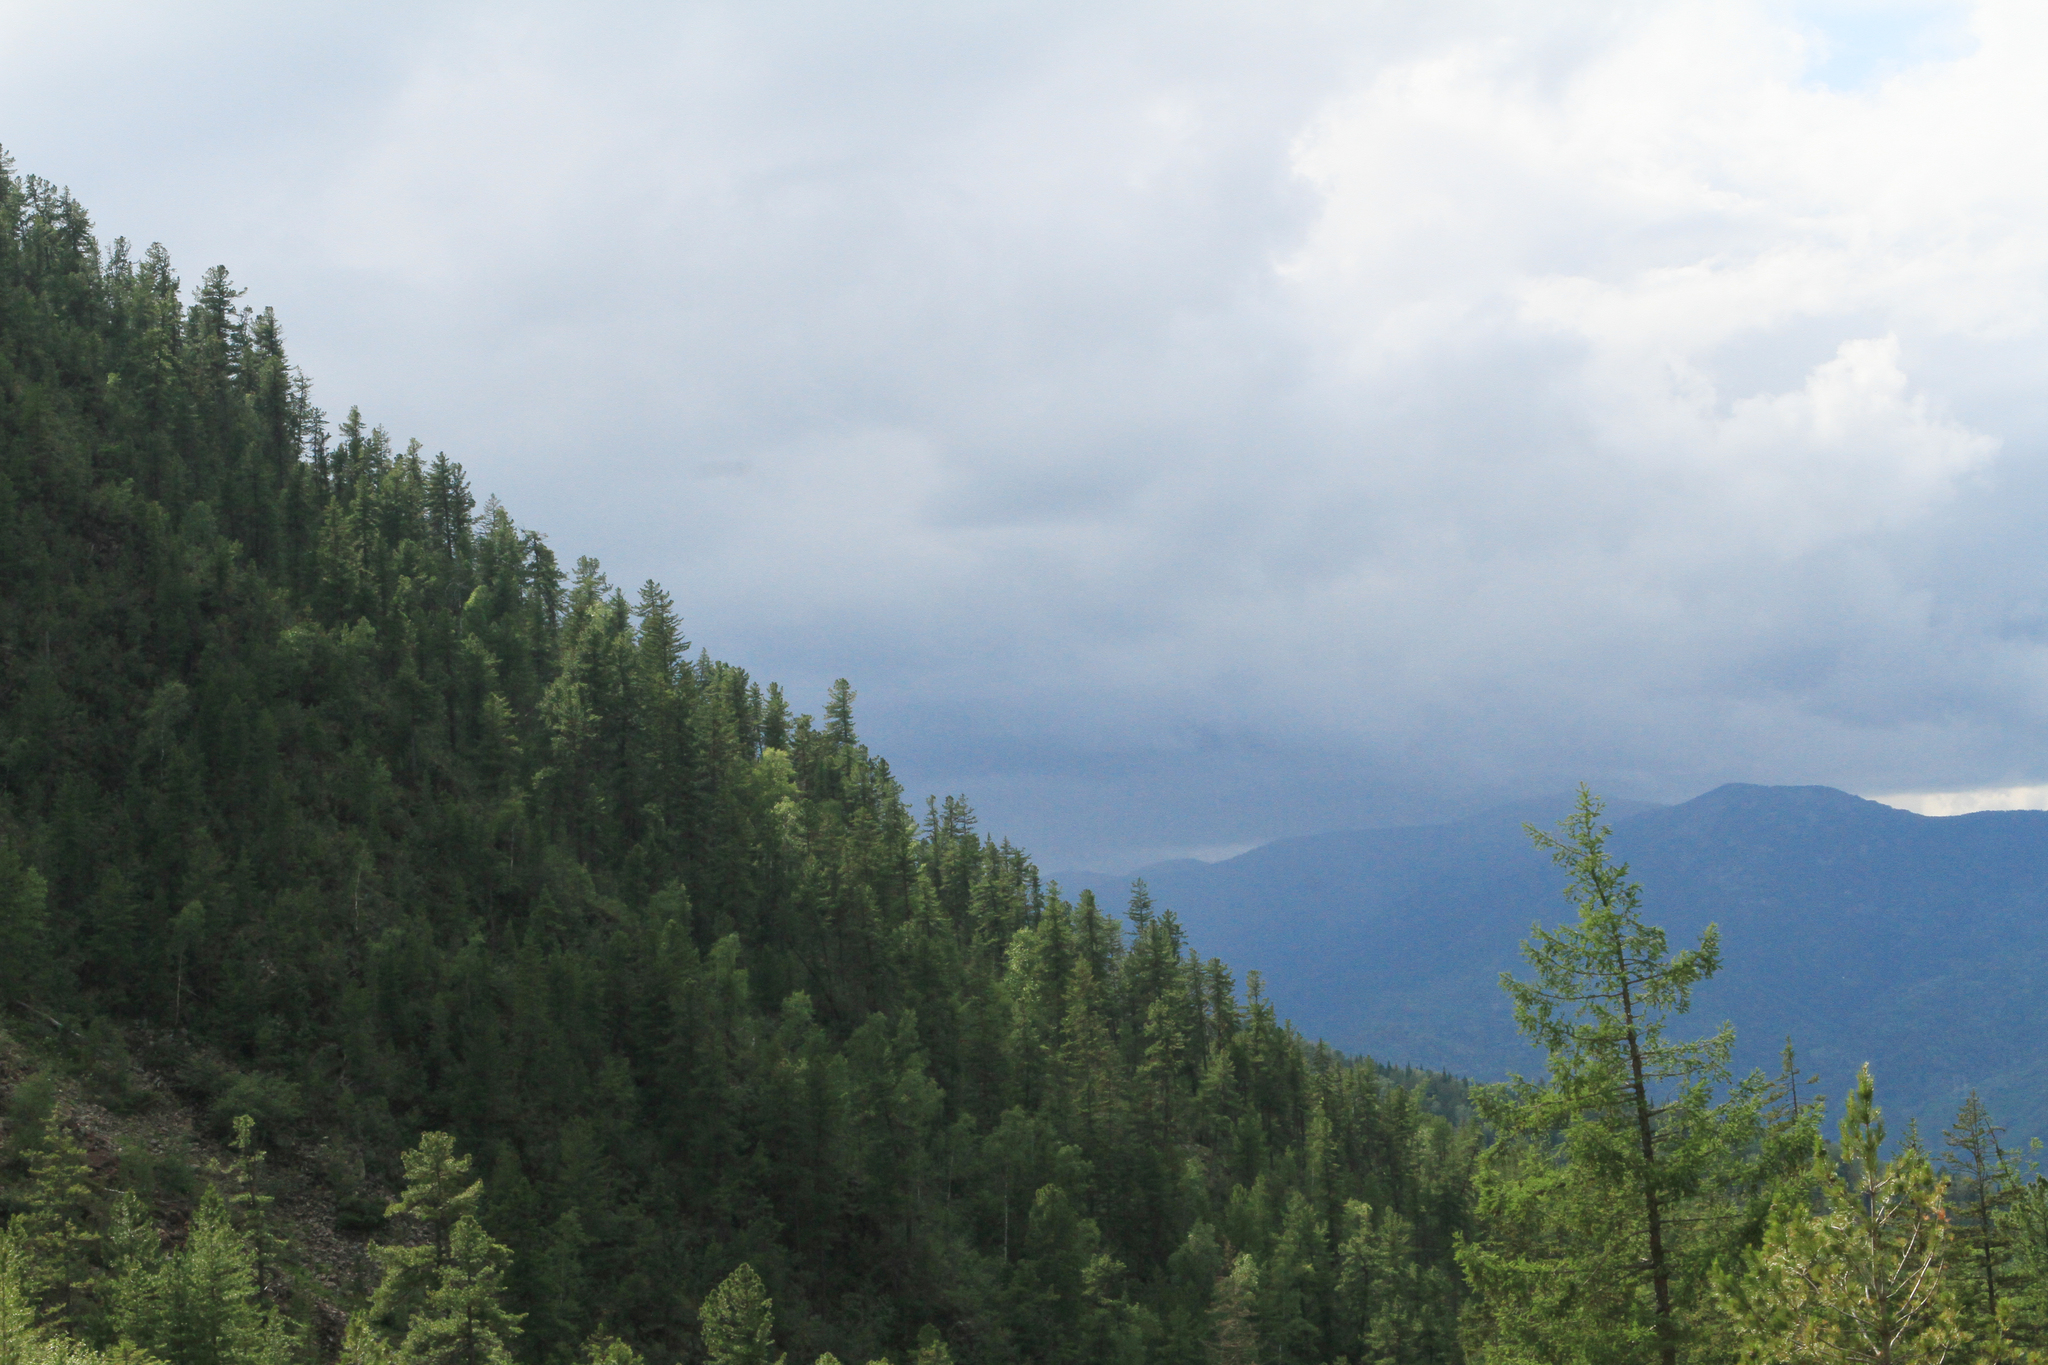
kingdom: Plantae
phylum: Tracheophyta
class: Pinopsida
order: Pinales
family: Pinaceae
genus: Picea
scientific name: Picea obovata
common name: Siberian spruce
